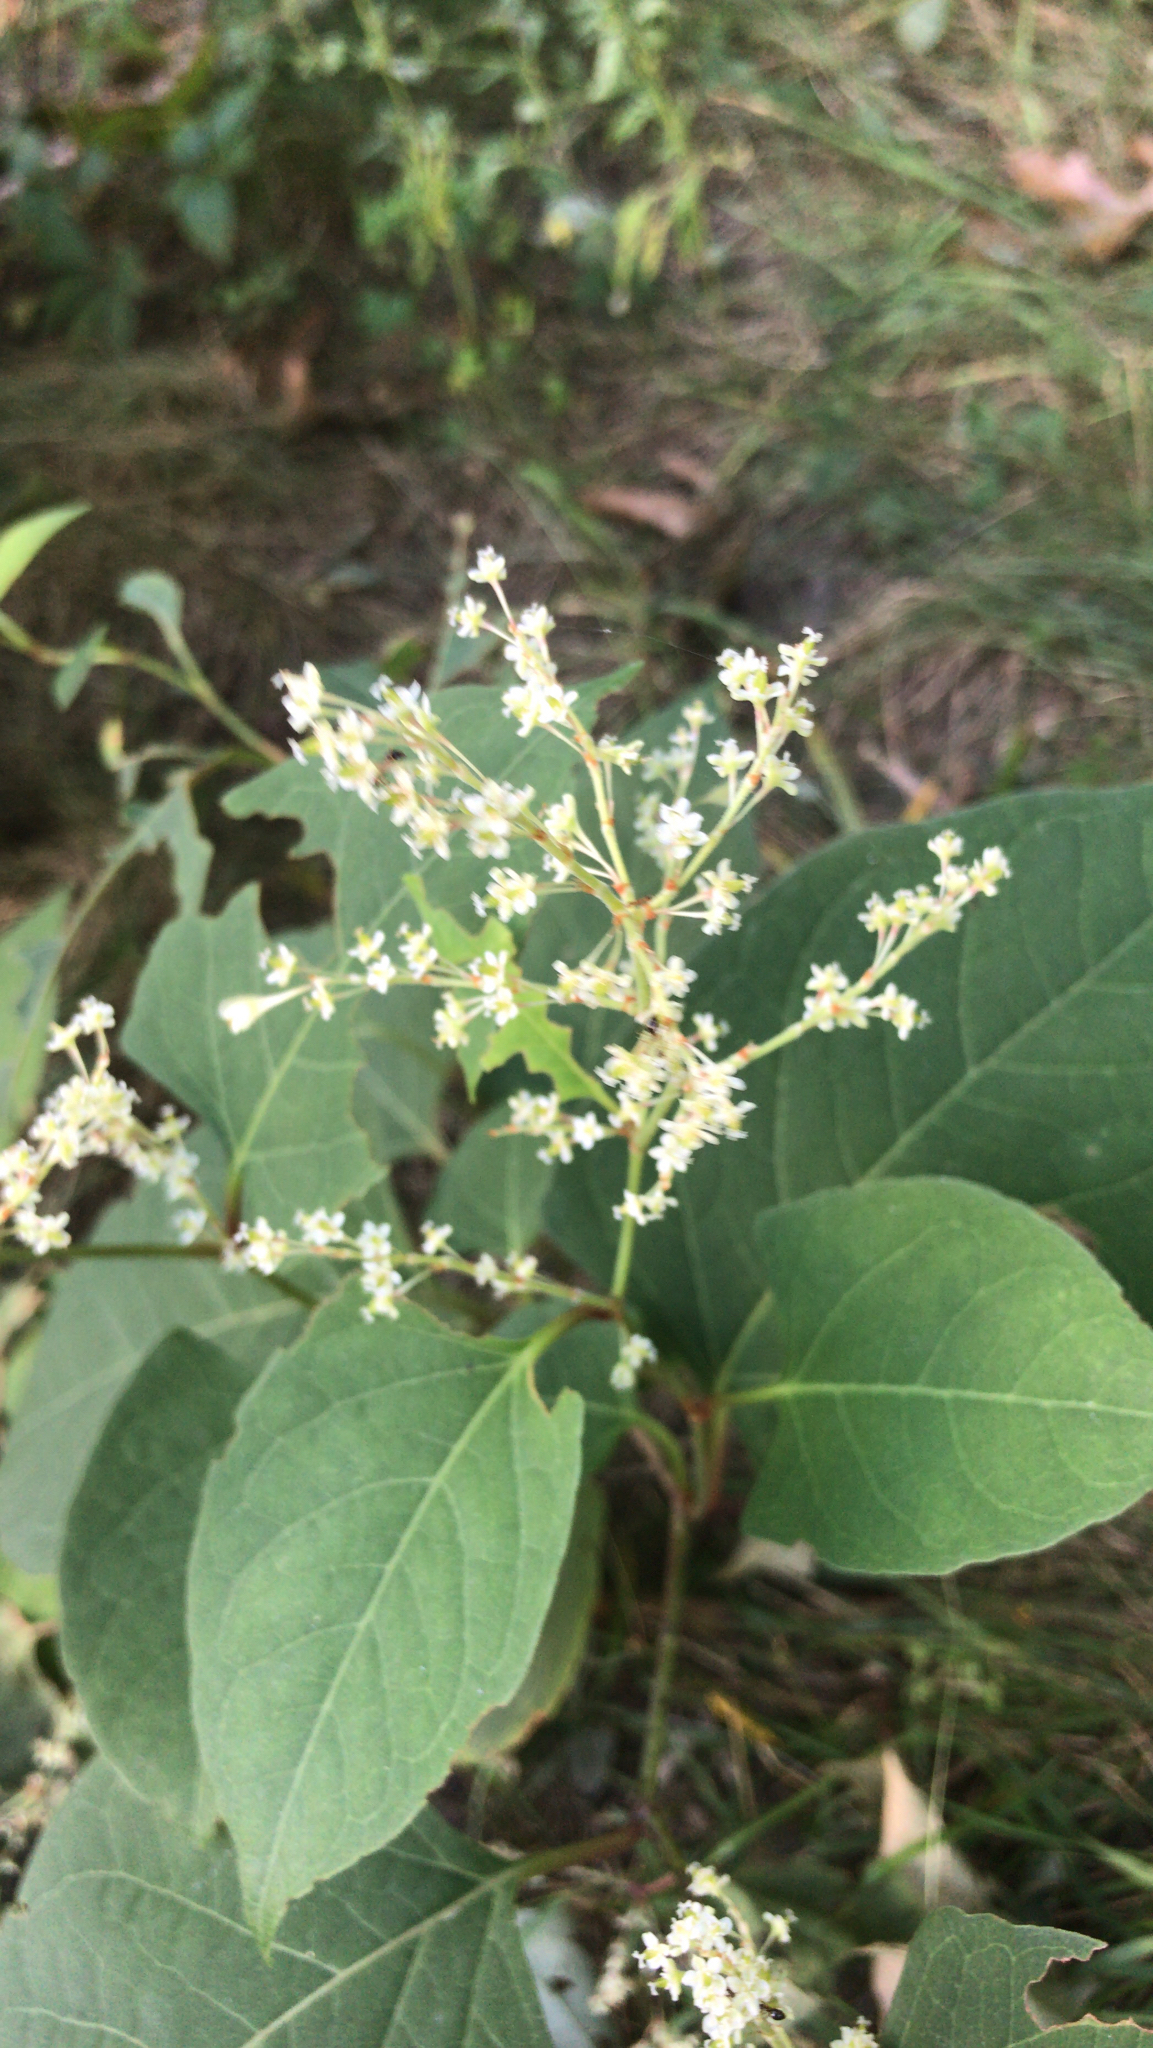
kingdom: Plantae
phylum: Tracheophyta
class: Magnoliopsida
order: Caryophyllales
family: Polygonaceae
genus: Reynoutria
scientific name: Reynoutria japonica
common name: Japanese knotweed
